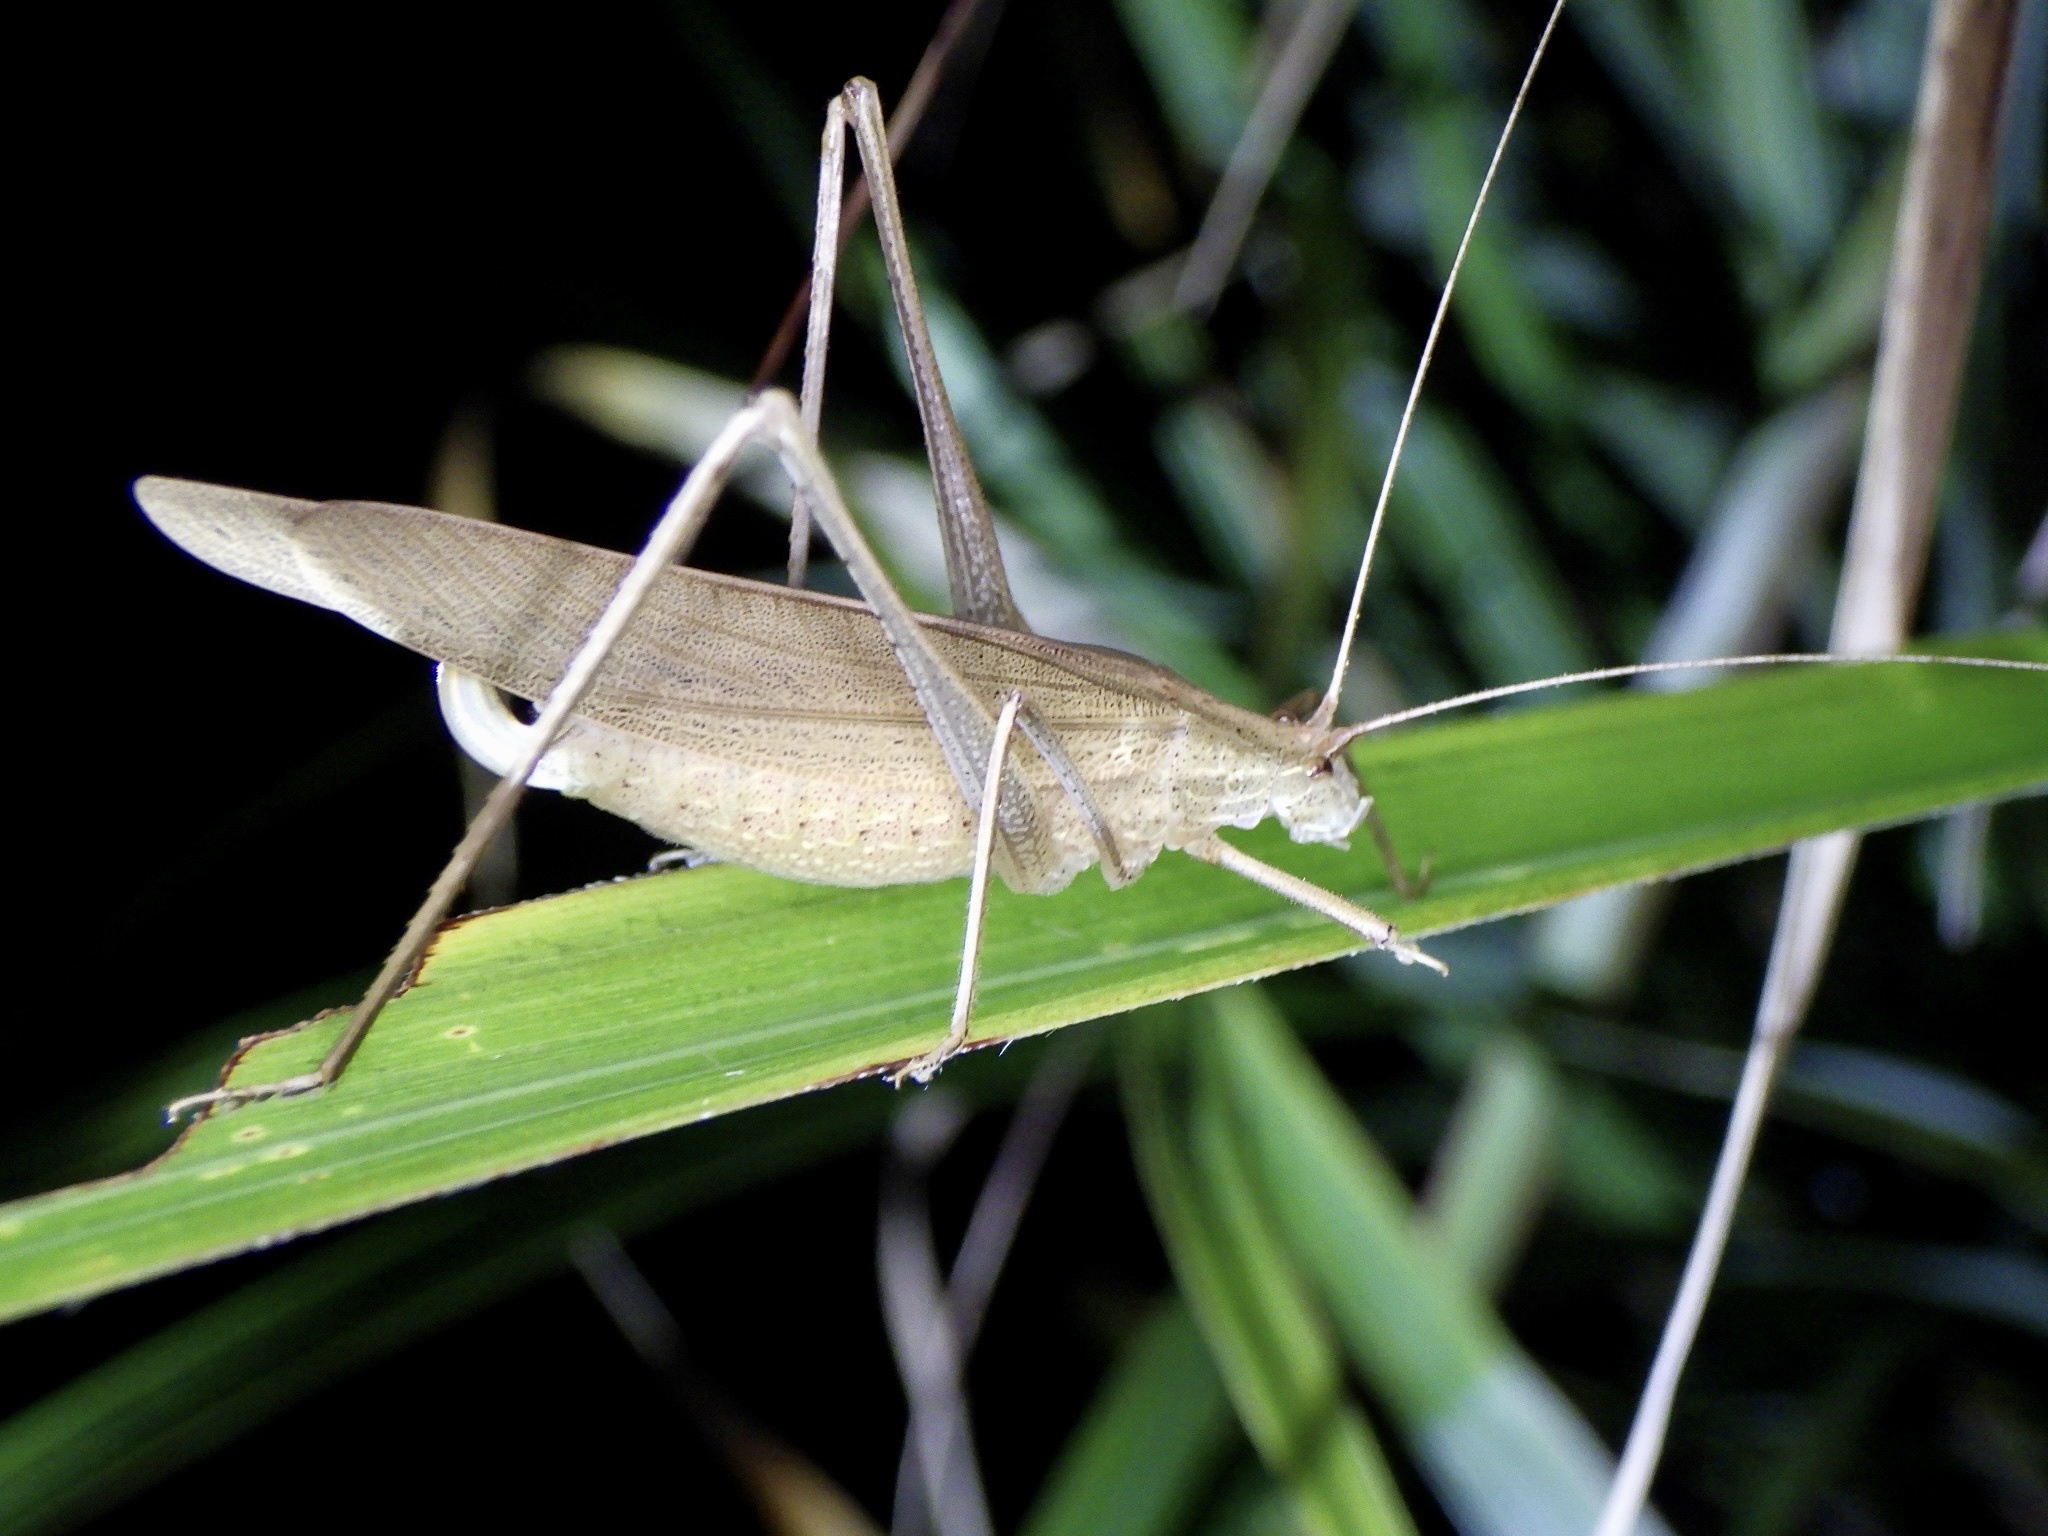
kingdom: Animalia
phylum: Arthropoda
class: Insecta
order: Orthoptera
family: Tettigoniidae
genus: Ducetia
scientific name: Ducetia japonica
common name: Pacific ducetia
